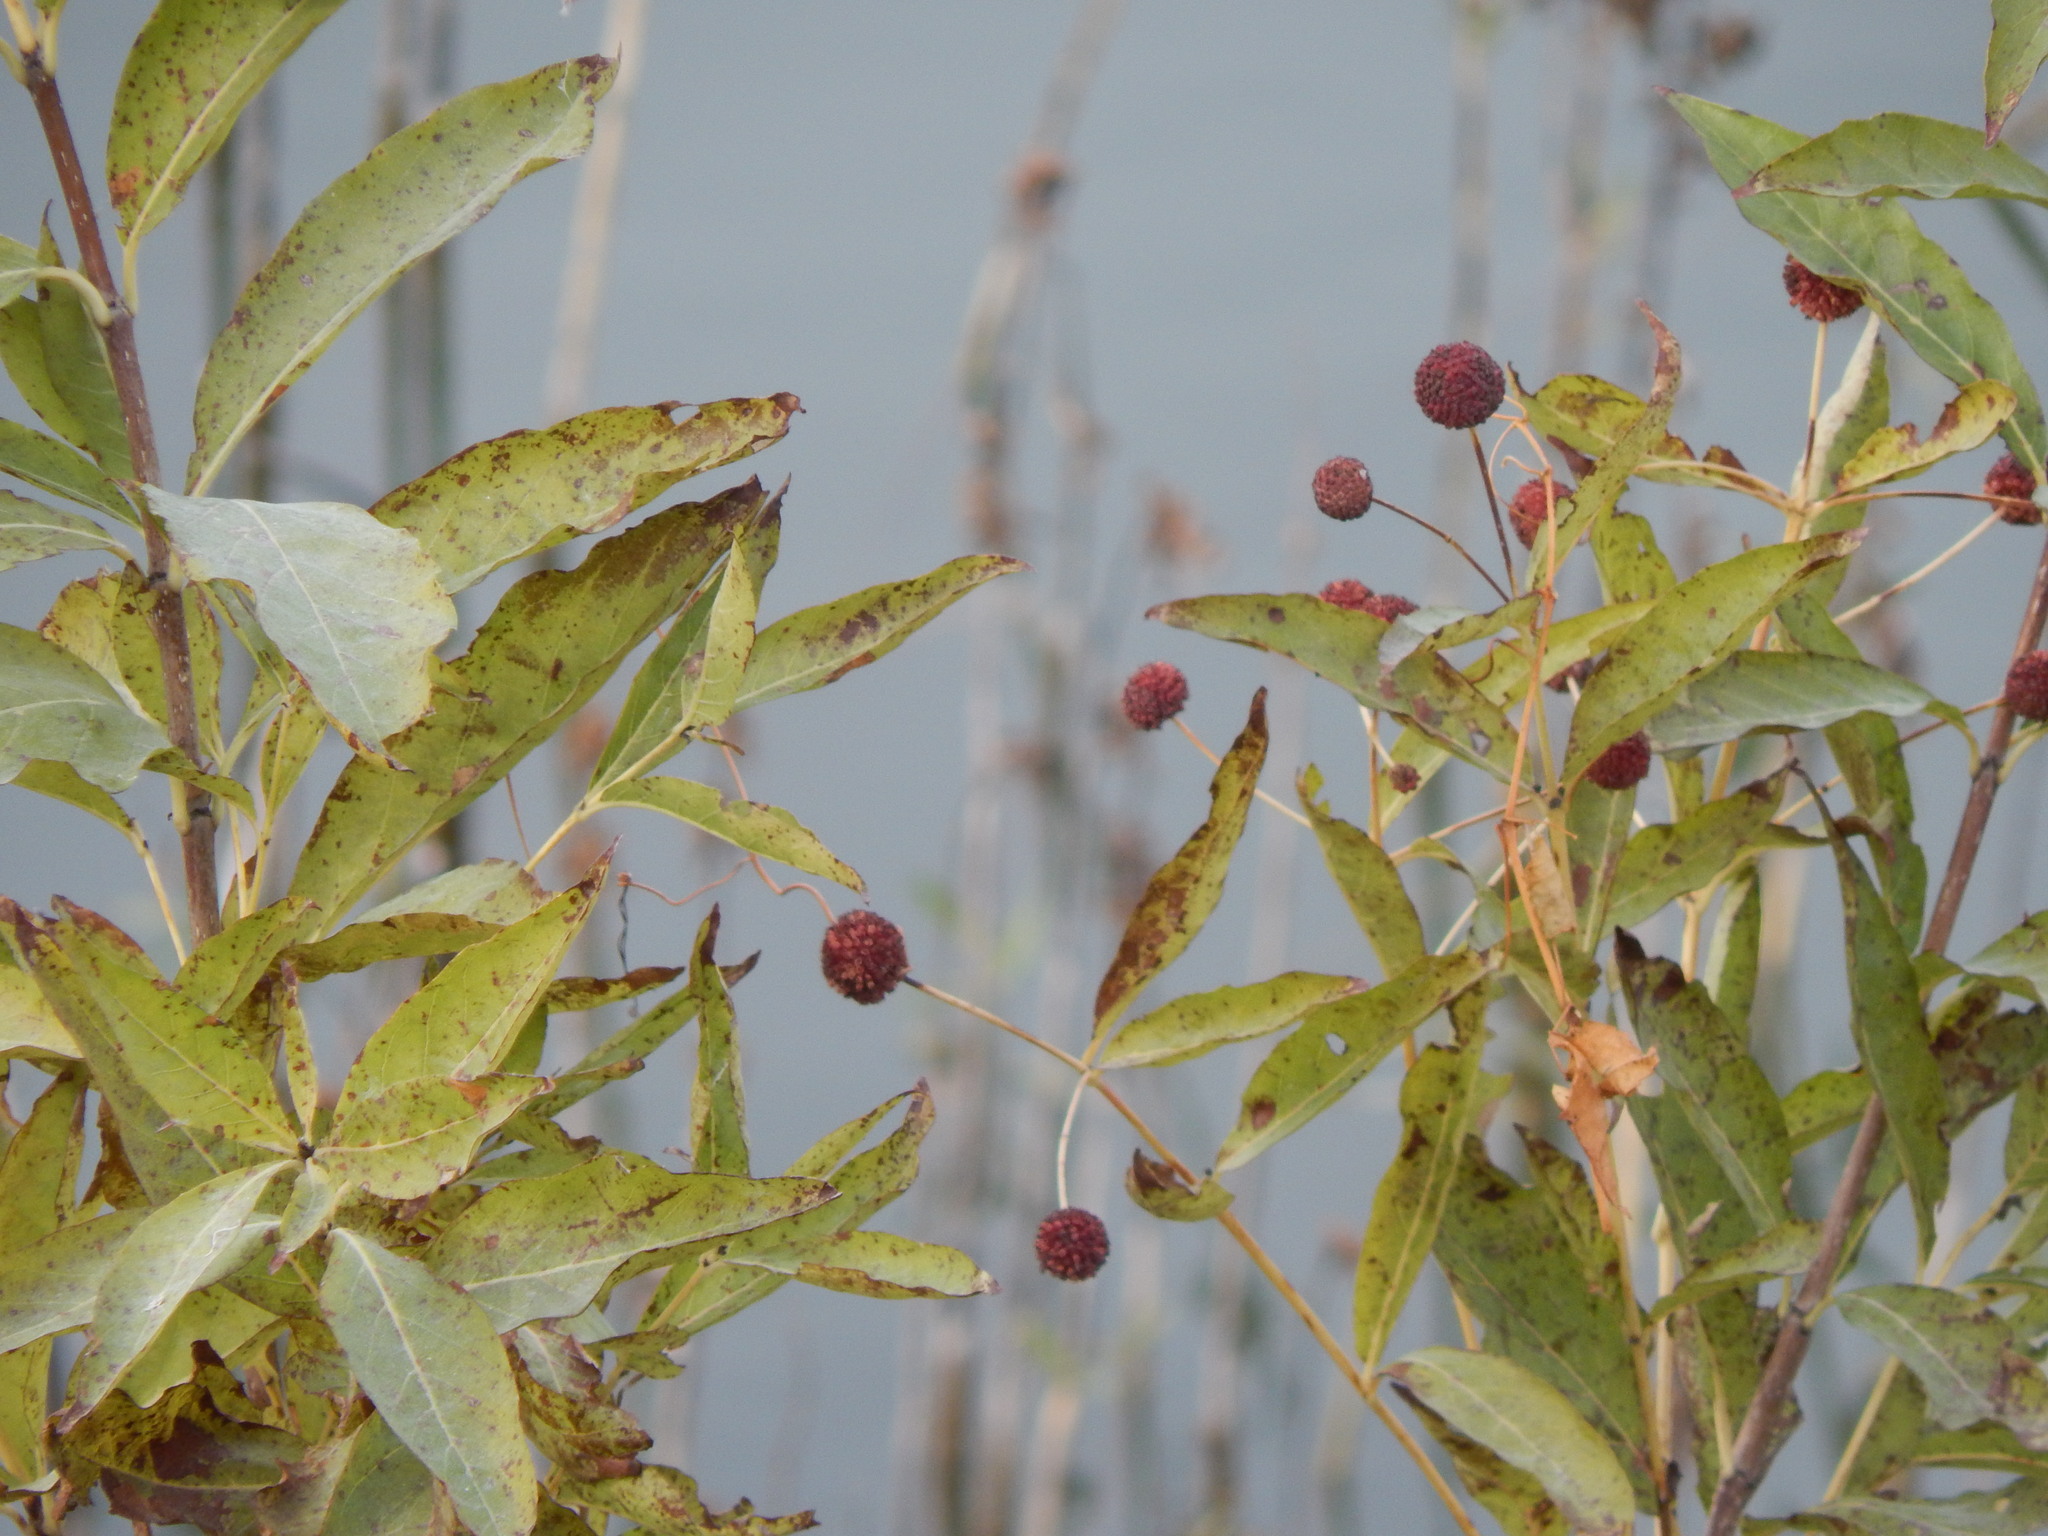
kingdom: Plantae
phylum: Tracheophyta
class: Magnoliopsida
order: Gentianales
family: Rubiaceae
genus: Cephalanthus
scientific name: Cephalanthus occidentalis
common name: Button-willow
